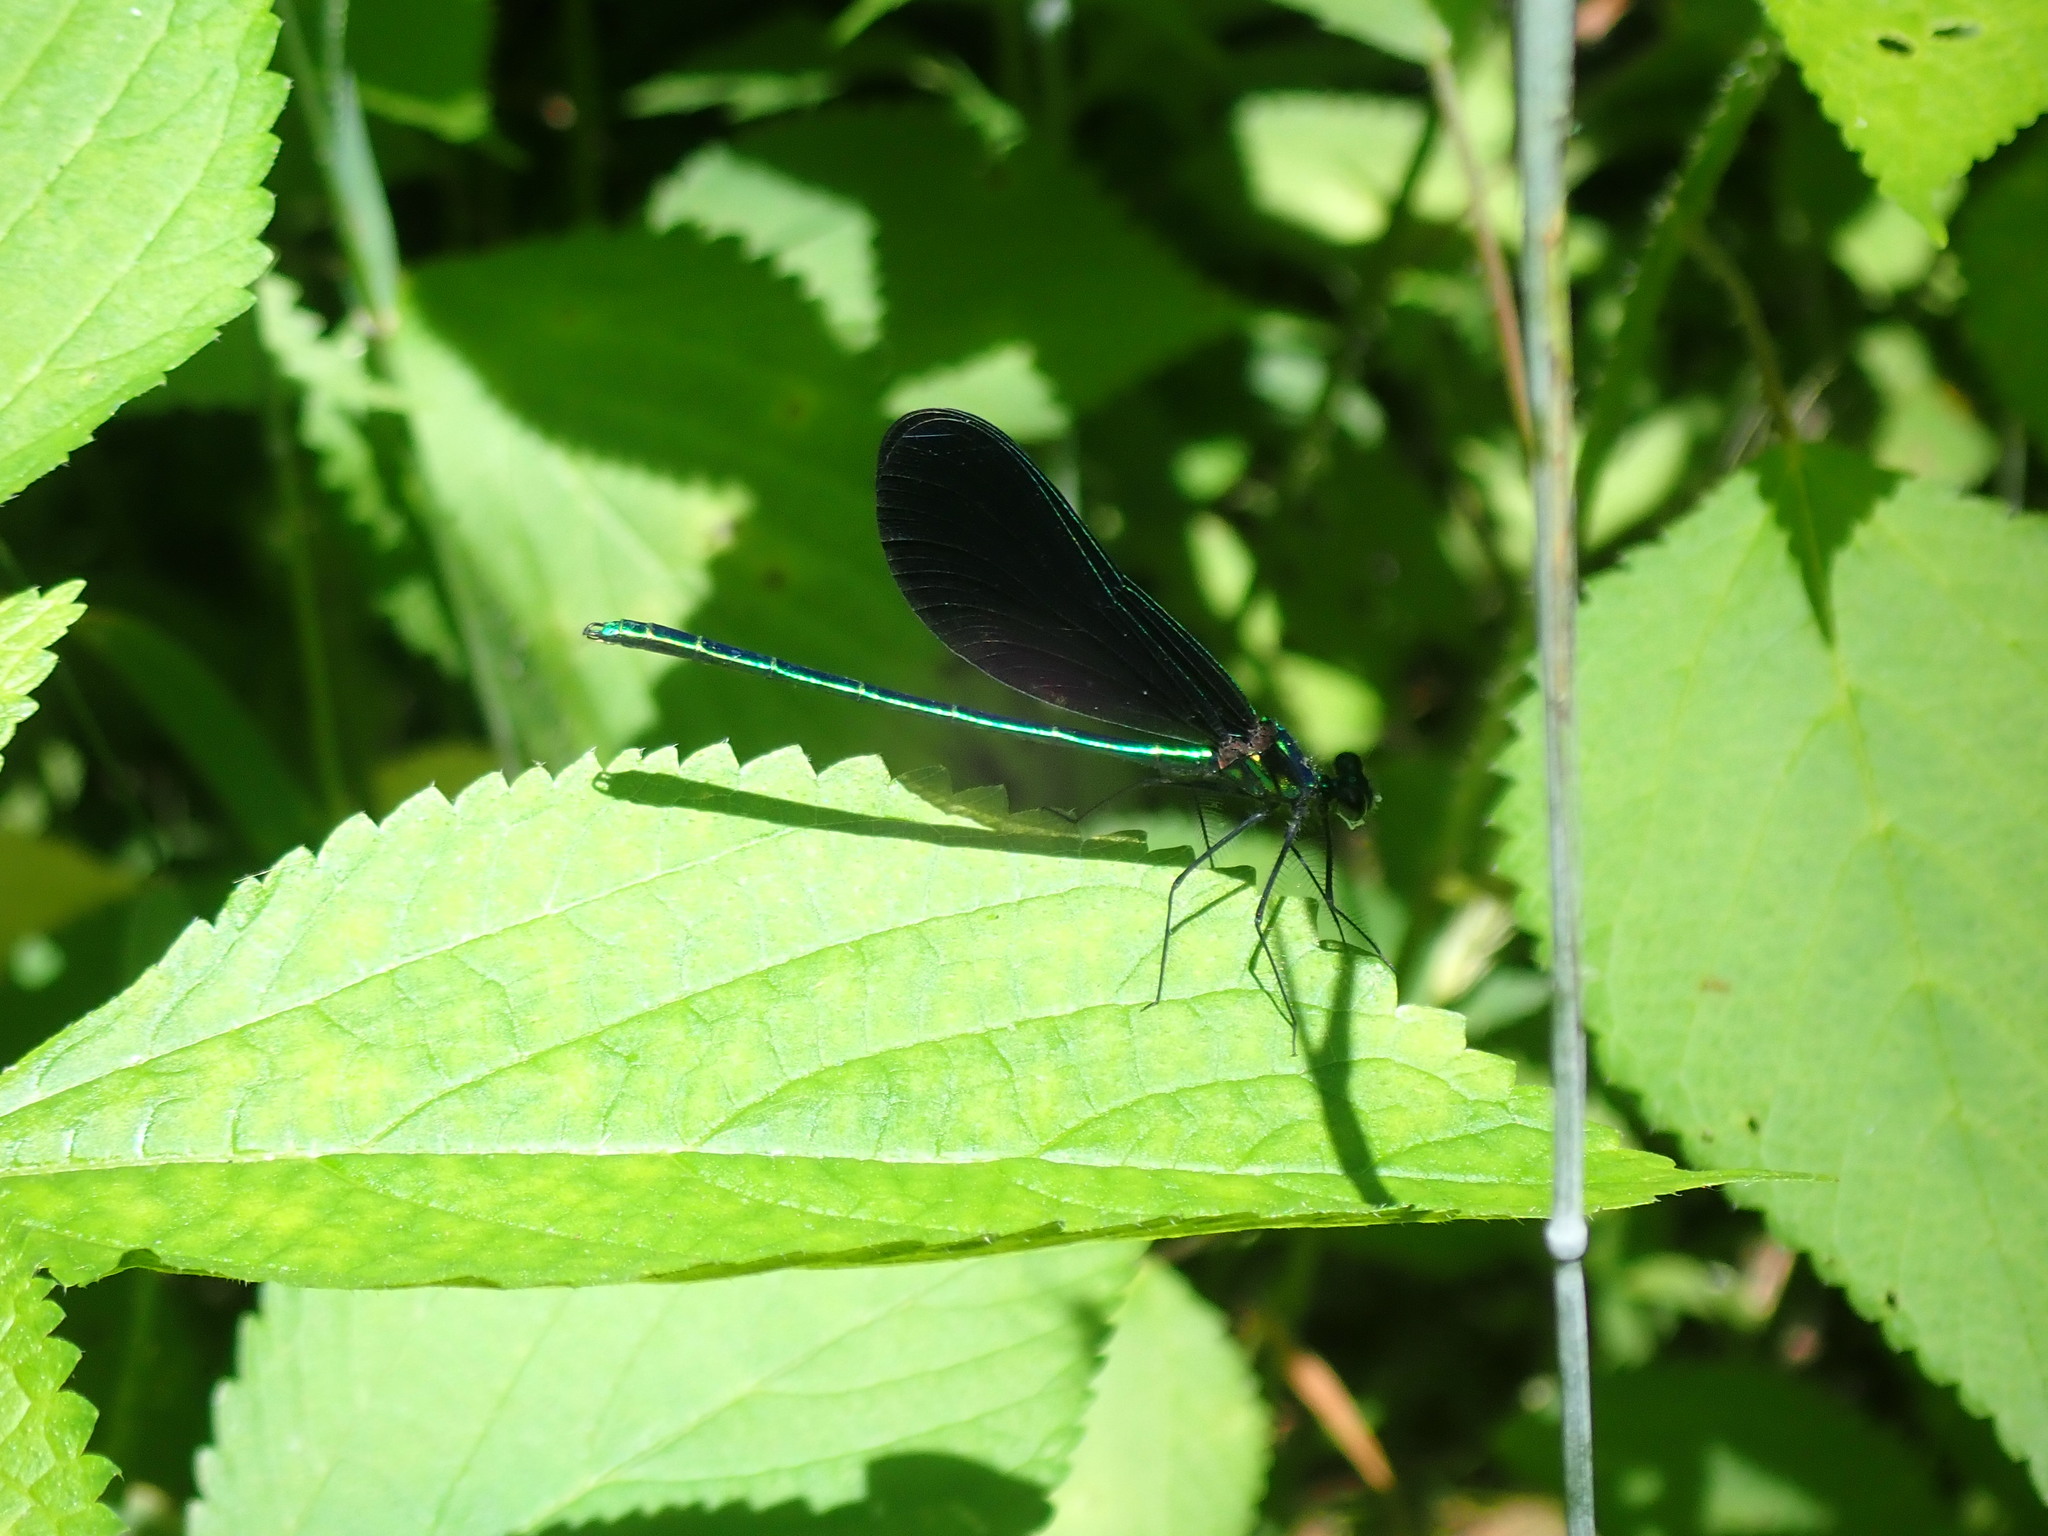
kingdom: Animalia
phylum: Arthropoda
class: Insecta
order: Odonata
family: Calopterygidae
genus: Calopteryx
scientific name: Calopteryx maculata
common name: Ebony jewelwing
